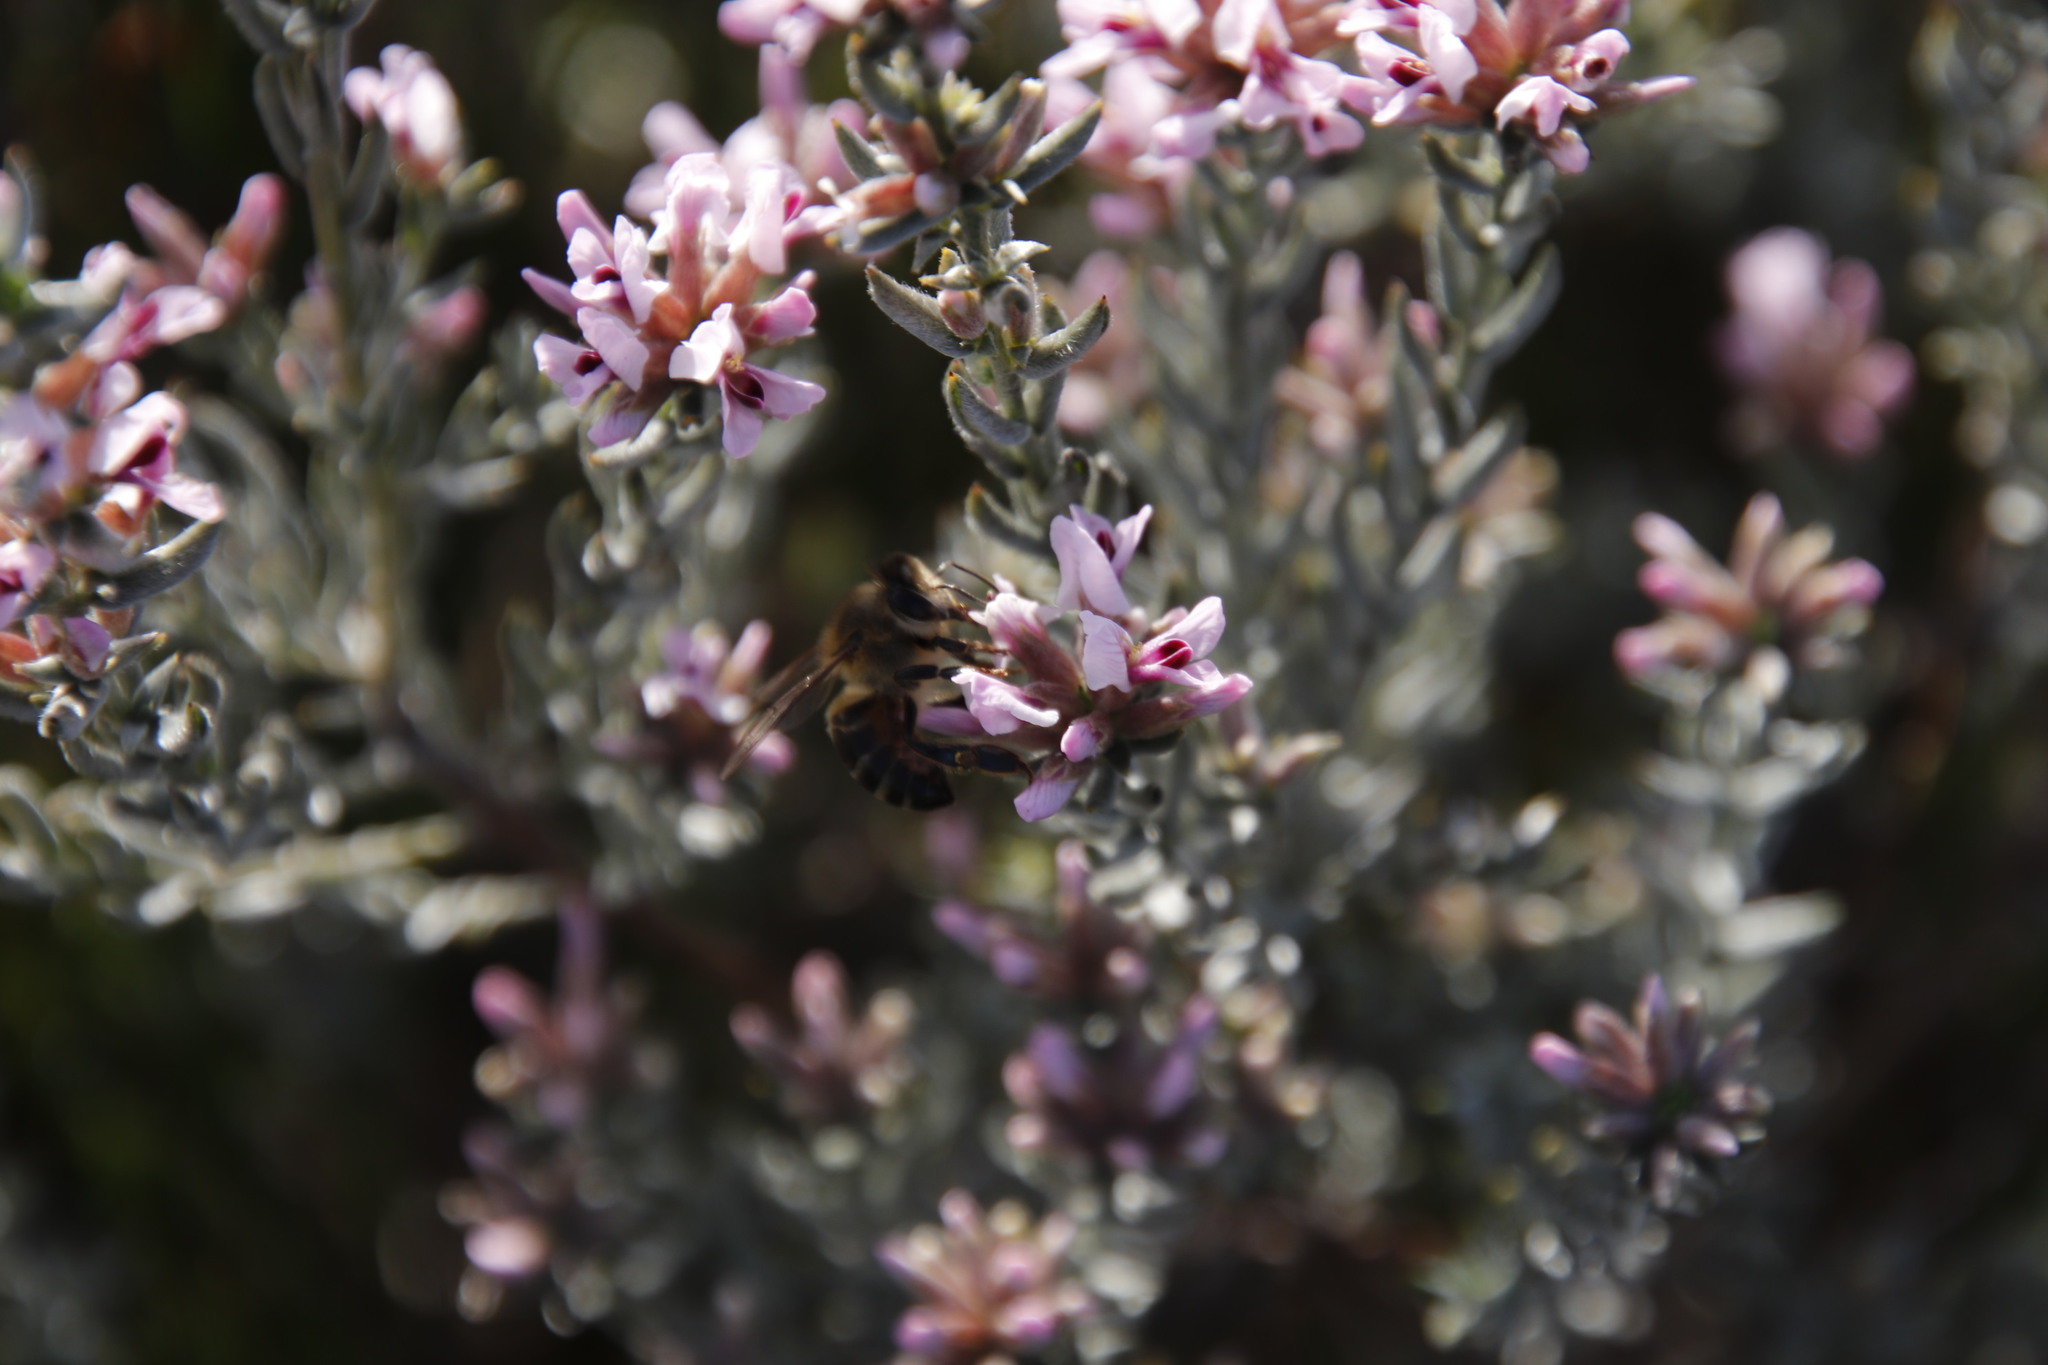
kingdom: Plantae
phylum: Tracheophyta
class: Magnoliopsida
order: Fabales
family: Fabaceae
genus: Amphithalea
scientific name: Amphithalea ericifolia
